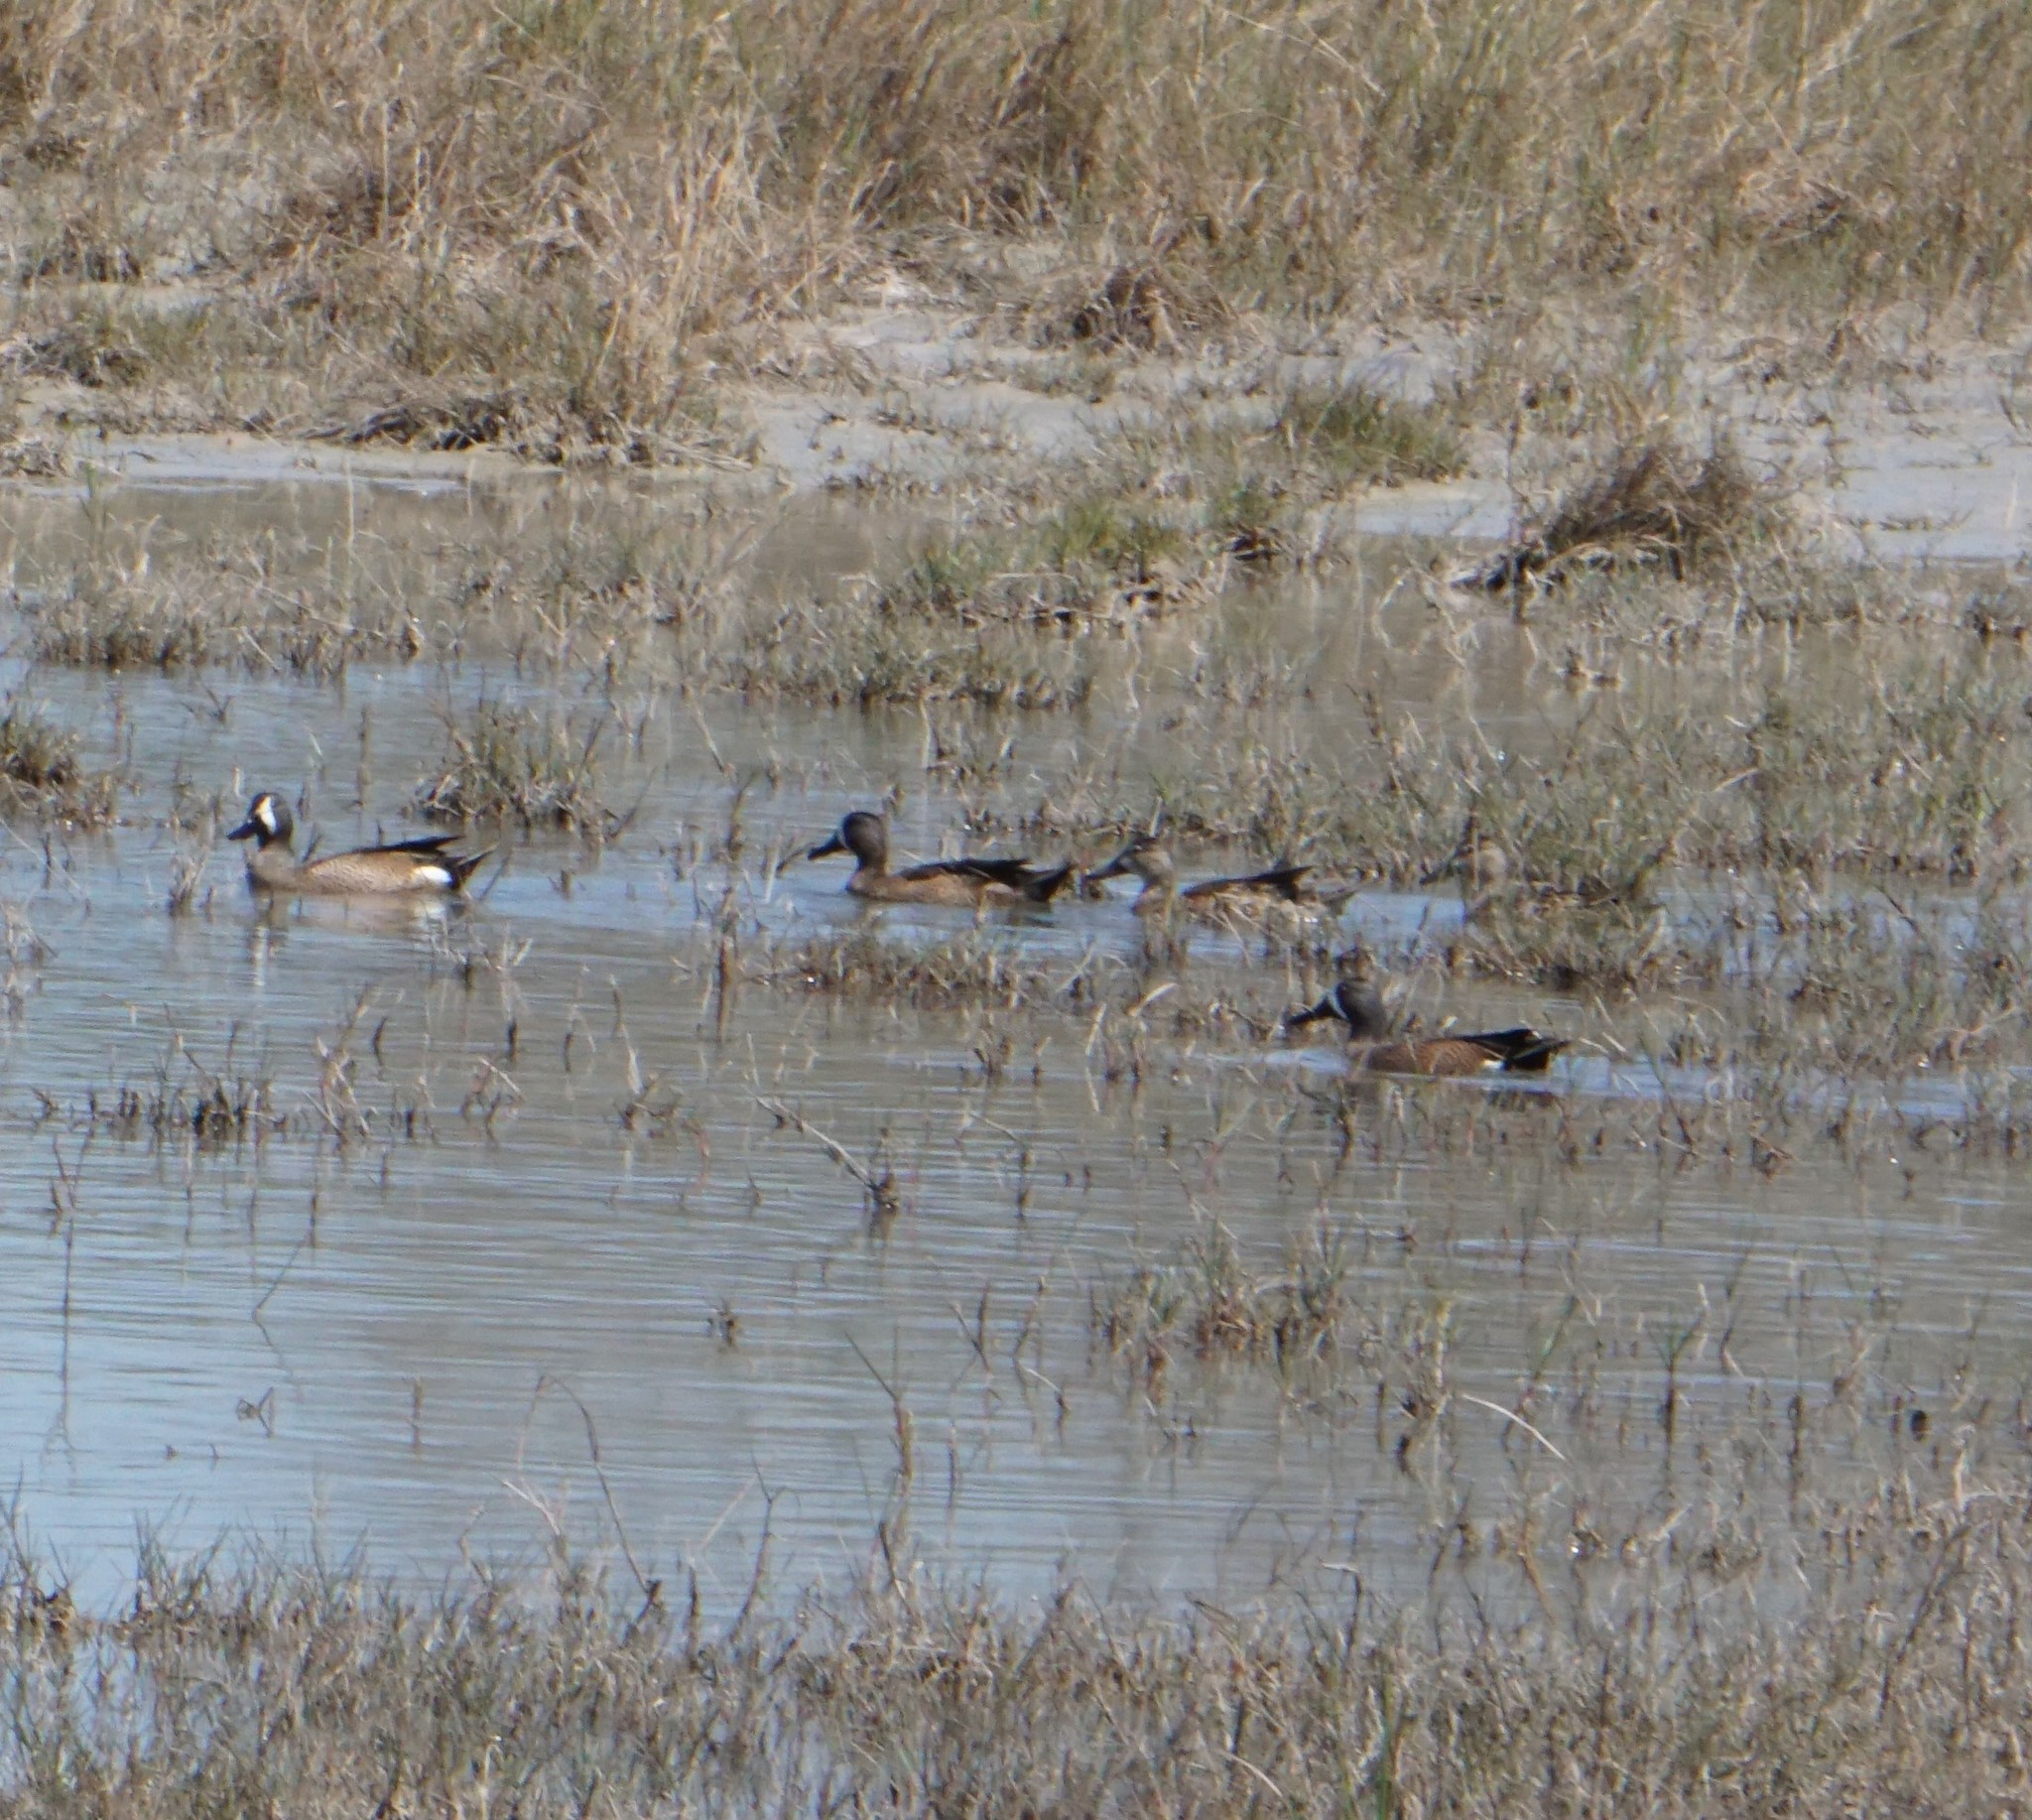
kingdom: Animalia
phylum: Chordata
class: Aves
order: Anseriformes
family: Anatidae
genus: Spatula
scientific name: Spatula discors
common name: Blue-winged teal
